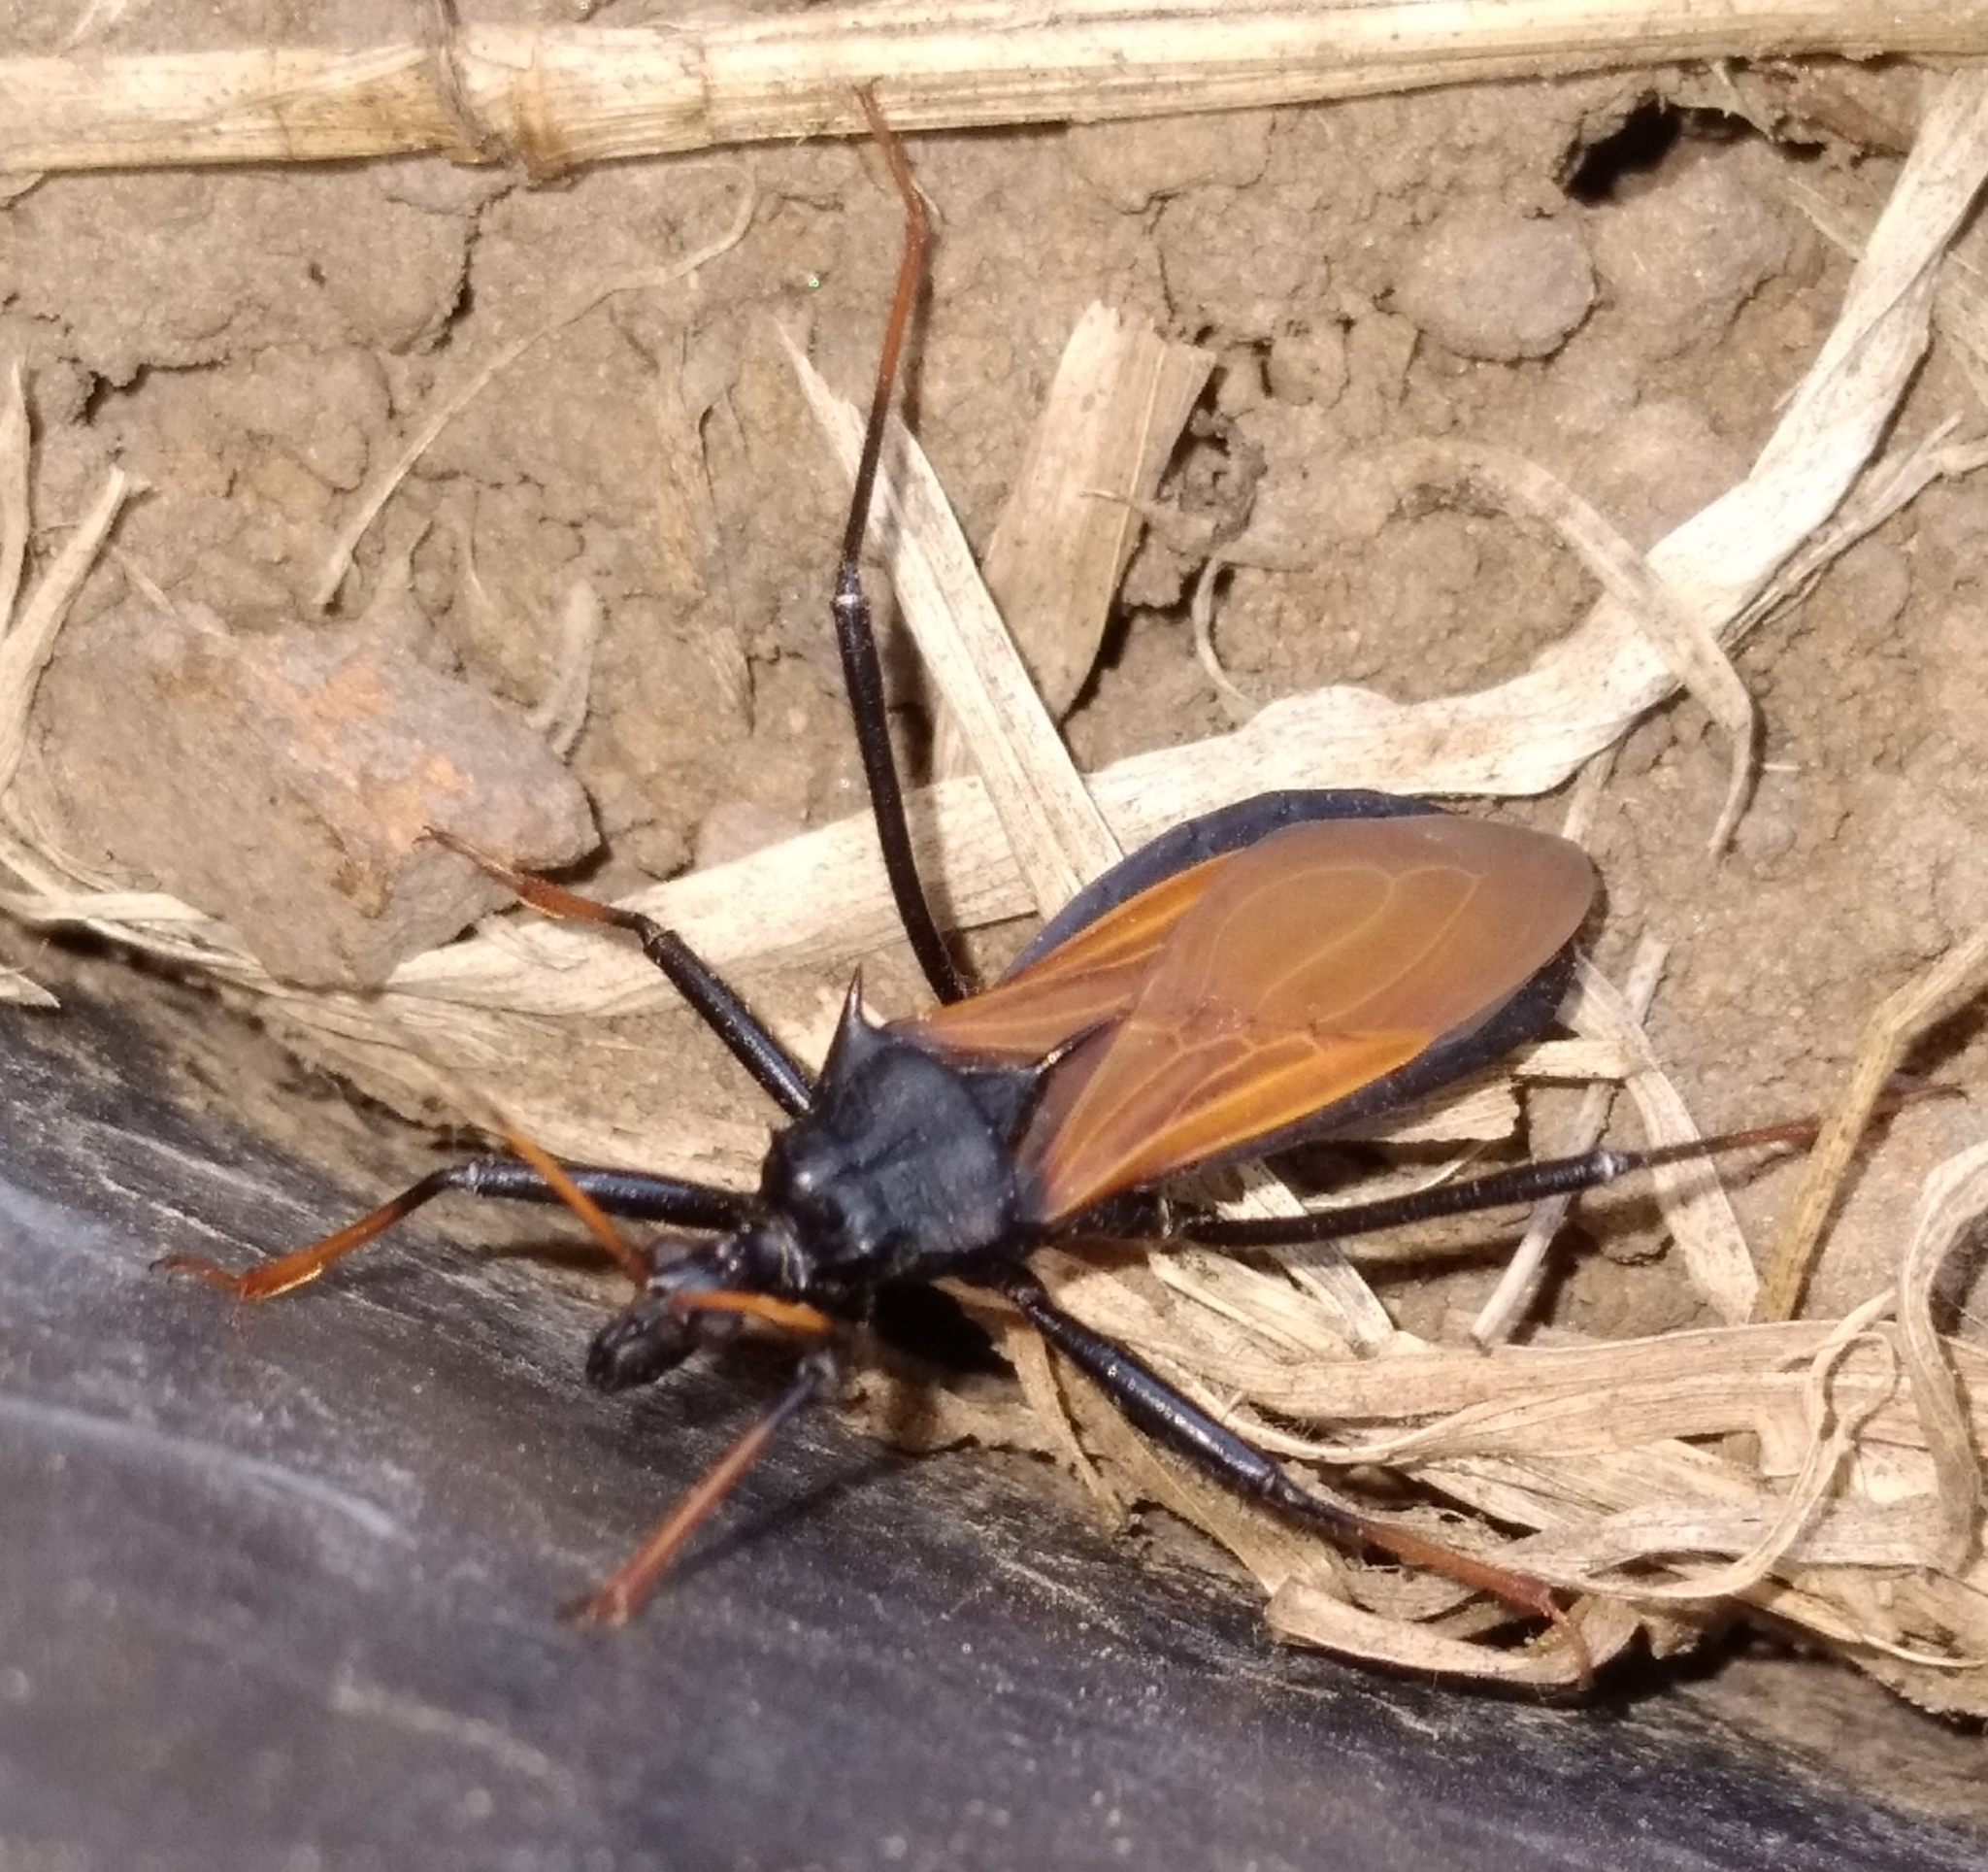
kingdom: Animalia
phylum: Arthropoda
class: Insecta
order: Hemiptera
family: Reduviidae
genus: Zelurus
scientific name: Zelurus femoralis
